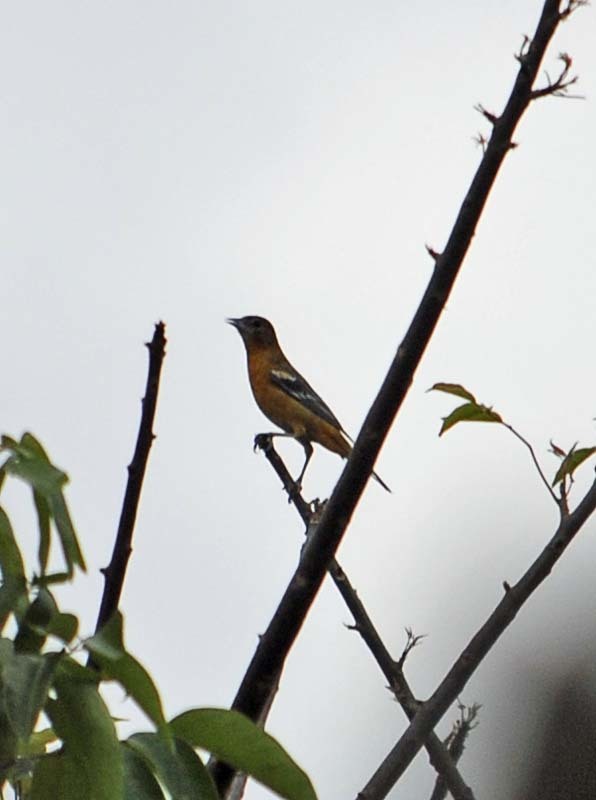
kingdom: Animalia
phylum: Chordata
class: Aves
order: Passeriformes
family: Icteridae
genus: Icterus
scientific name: Icterus galbula
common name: Baltimore oriole
